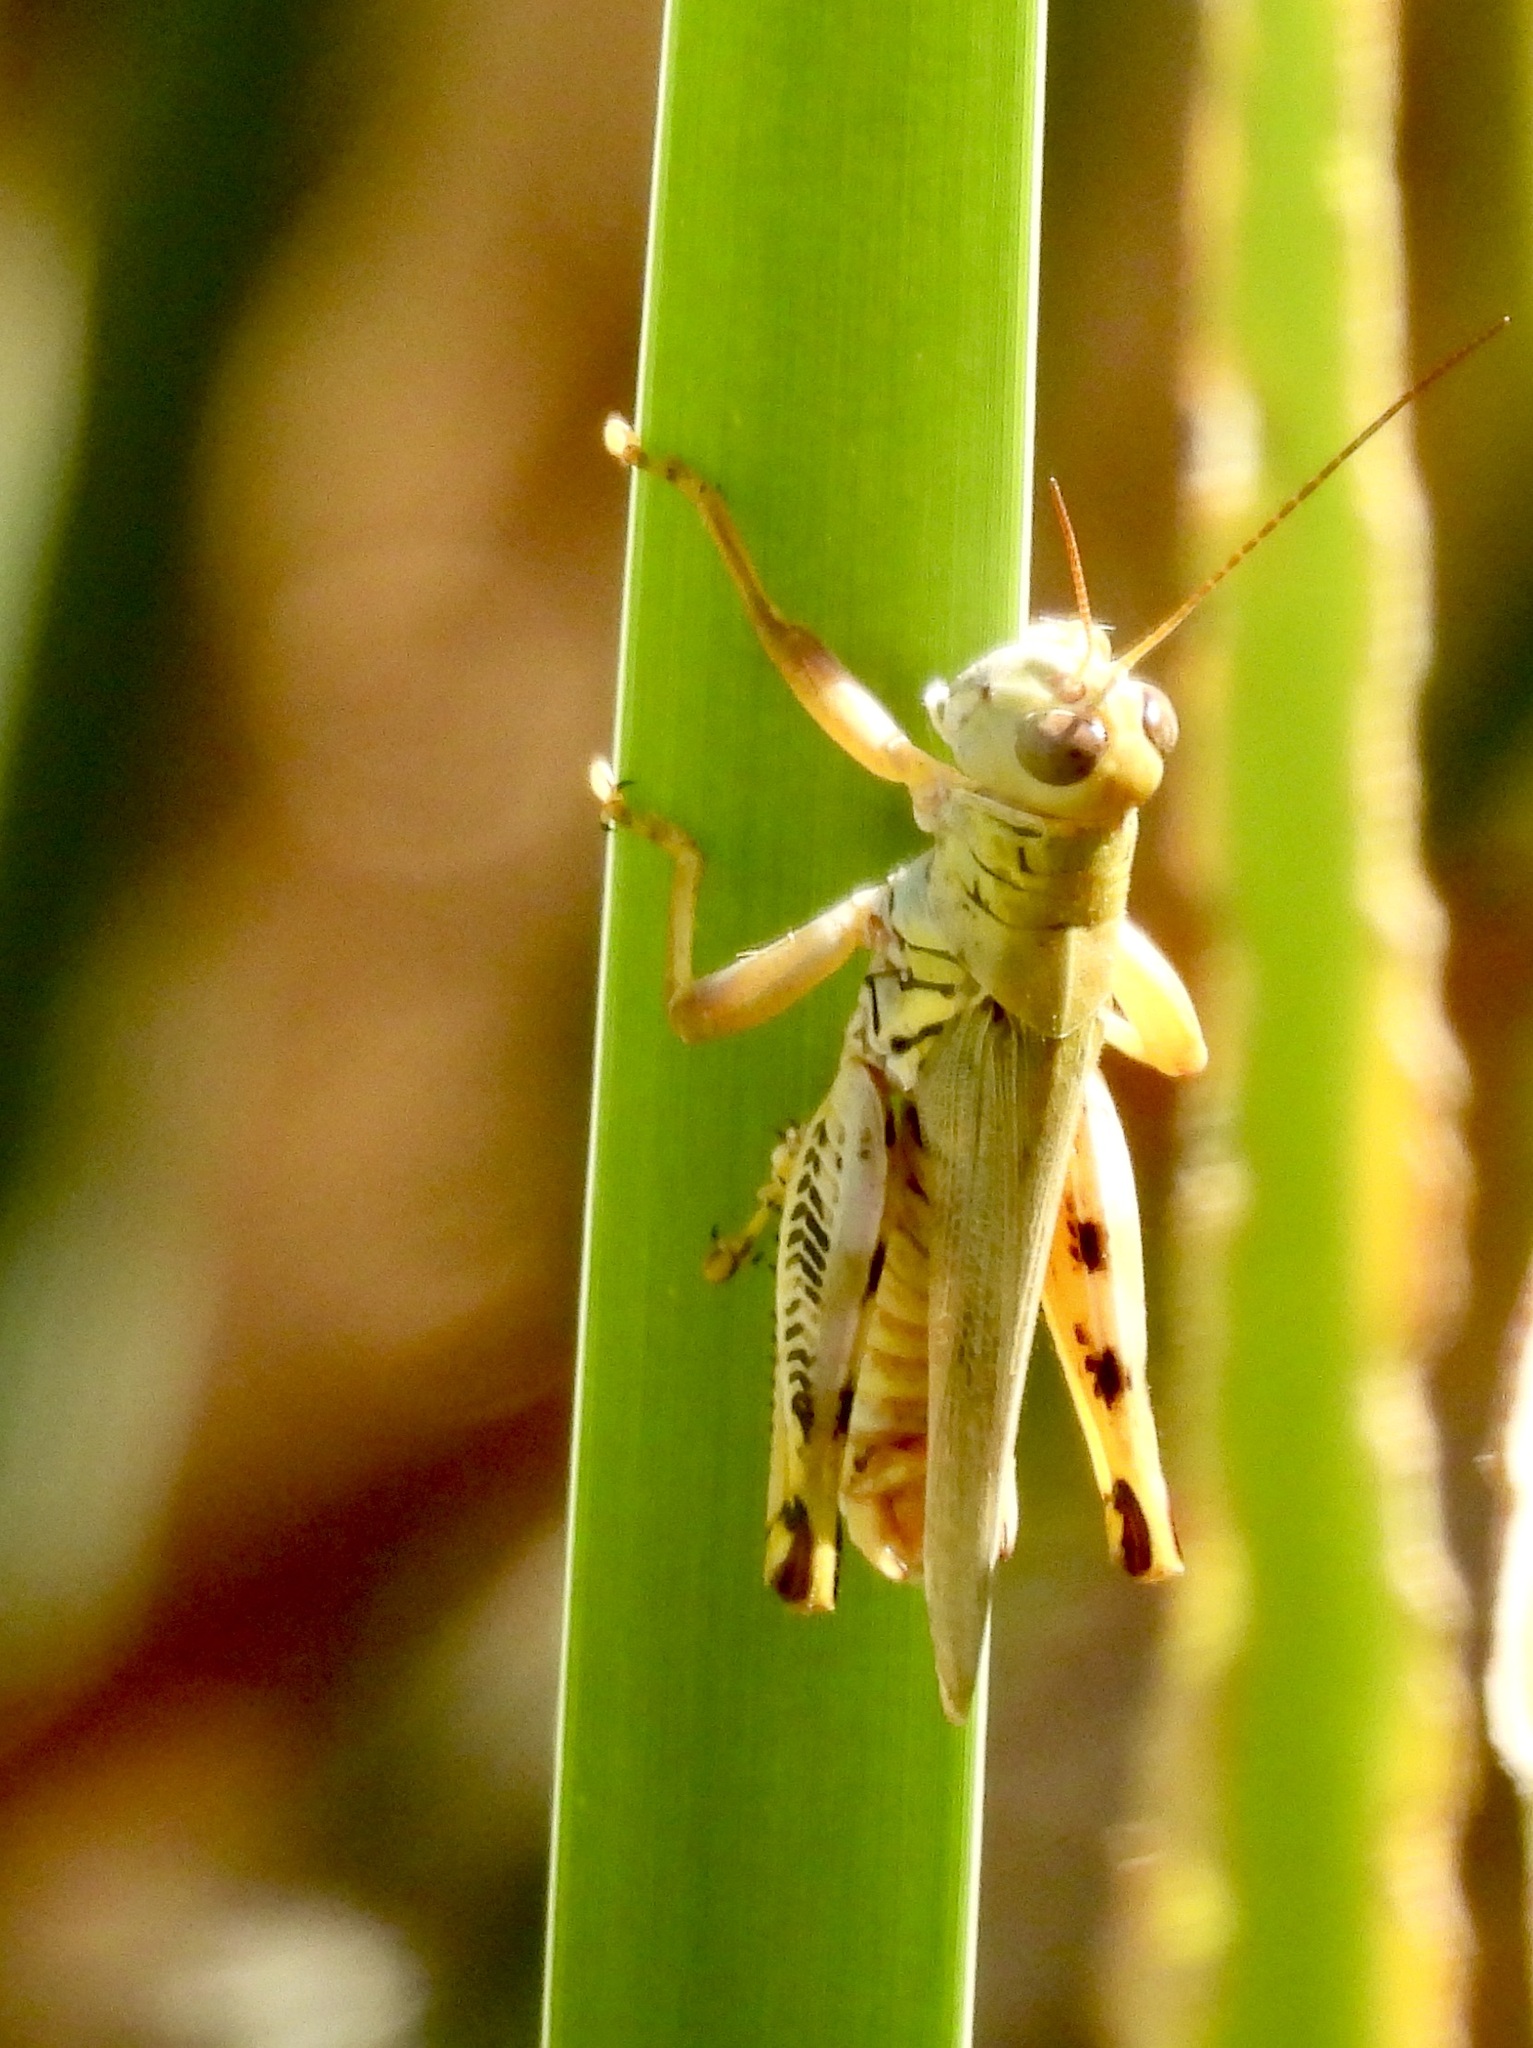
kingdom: Animalia
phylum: Arthropoda
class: Insecta
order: Orthoptera
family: Acrididae
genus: Melanoplus
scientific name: Melanoplus differentialis
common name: Differential grasshopper
